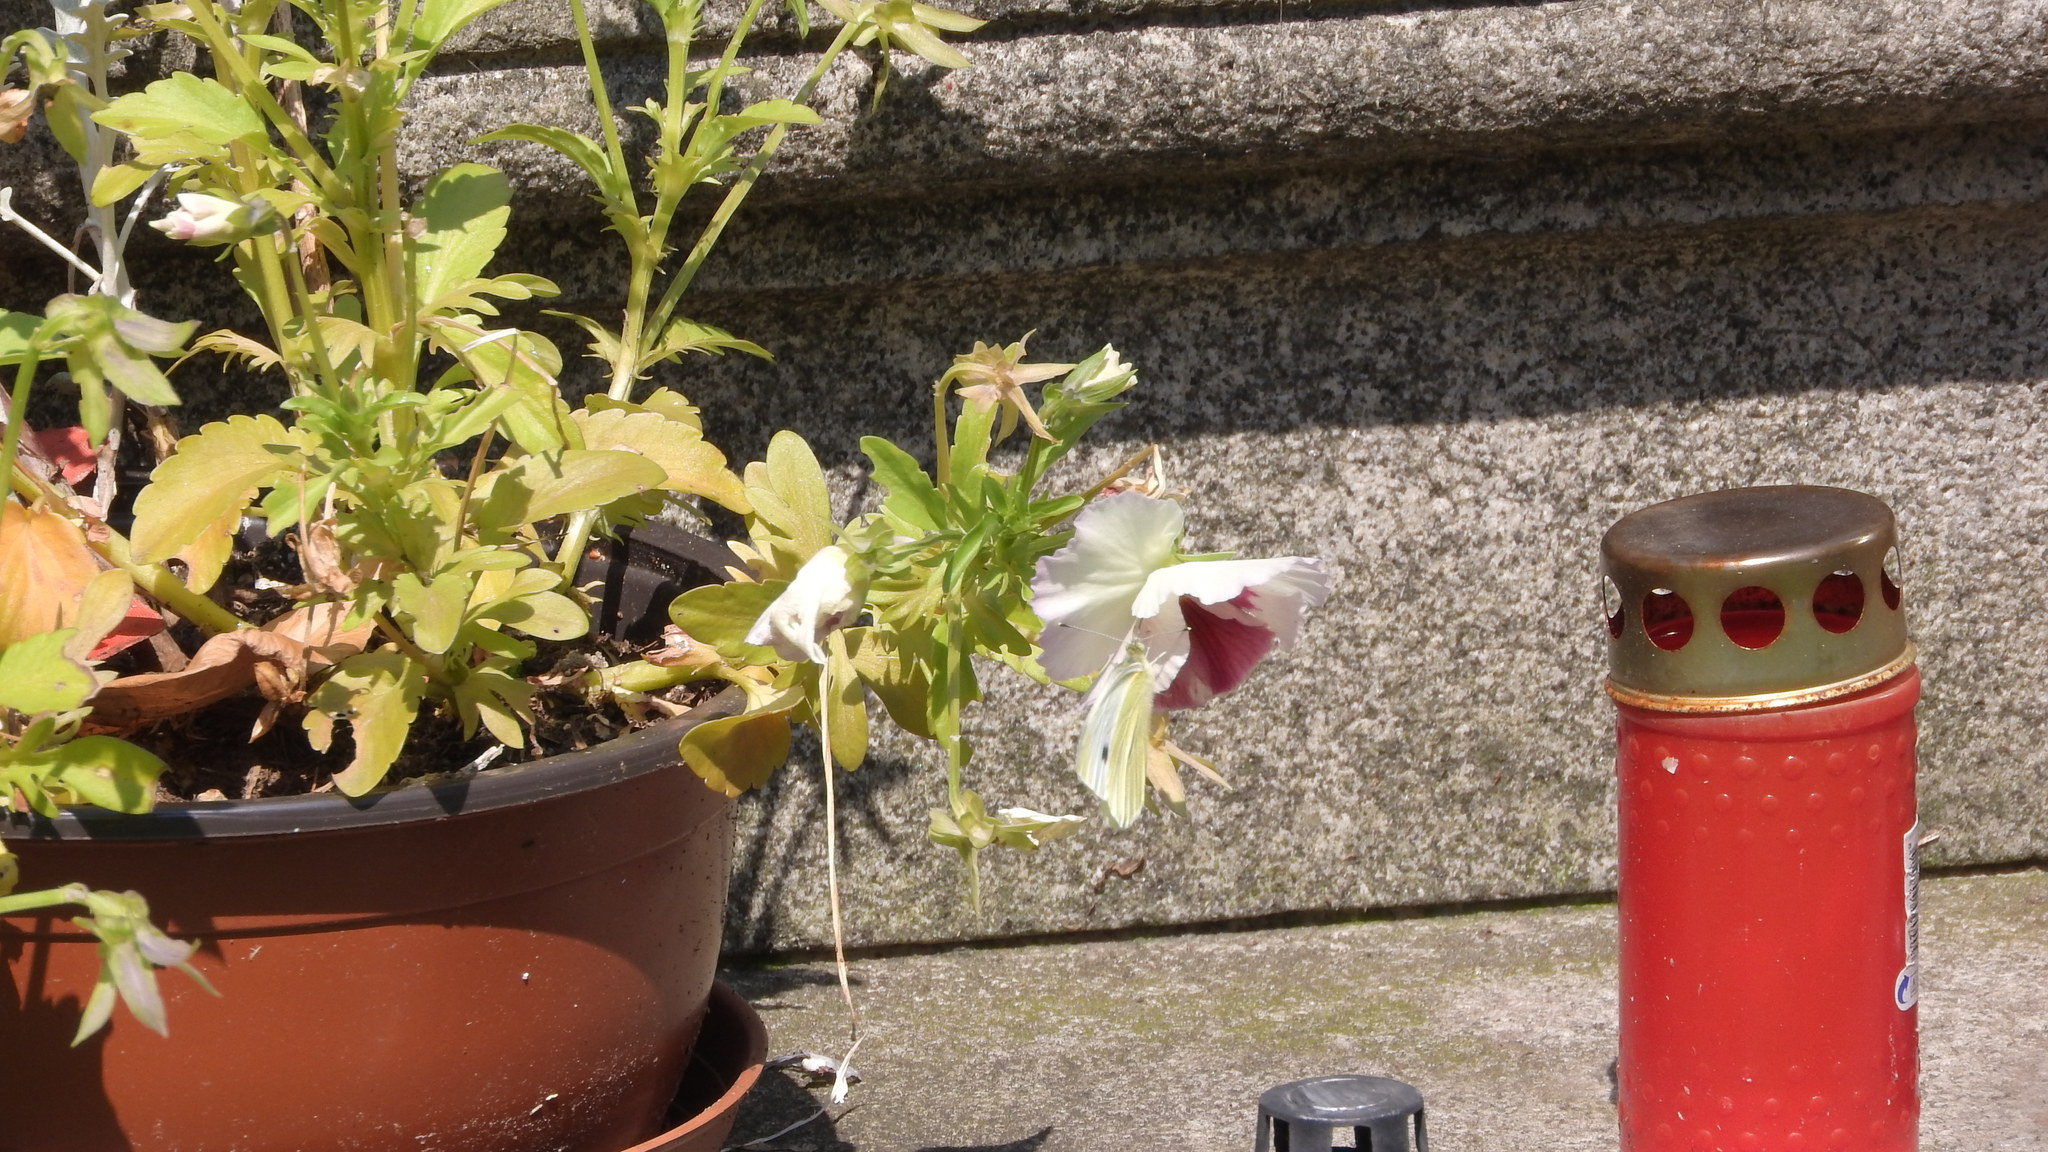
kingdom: Animalia
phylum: Arthropoda
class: Insecta
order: Lepidoptera
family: Pieridae
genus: Pieris
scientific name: Pieris rapae
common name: Small white
